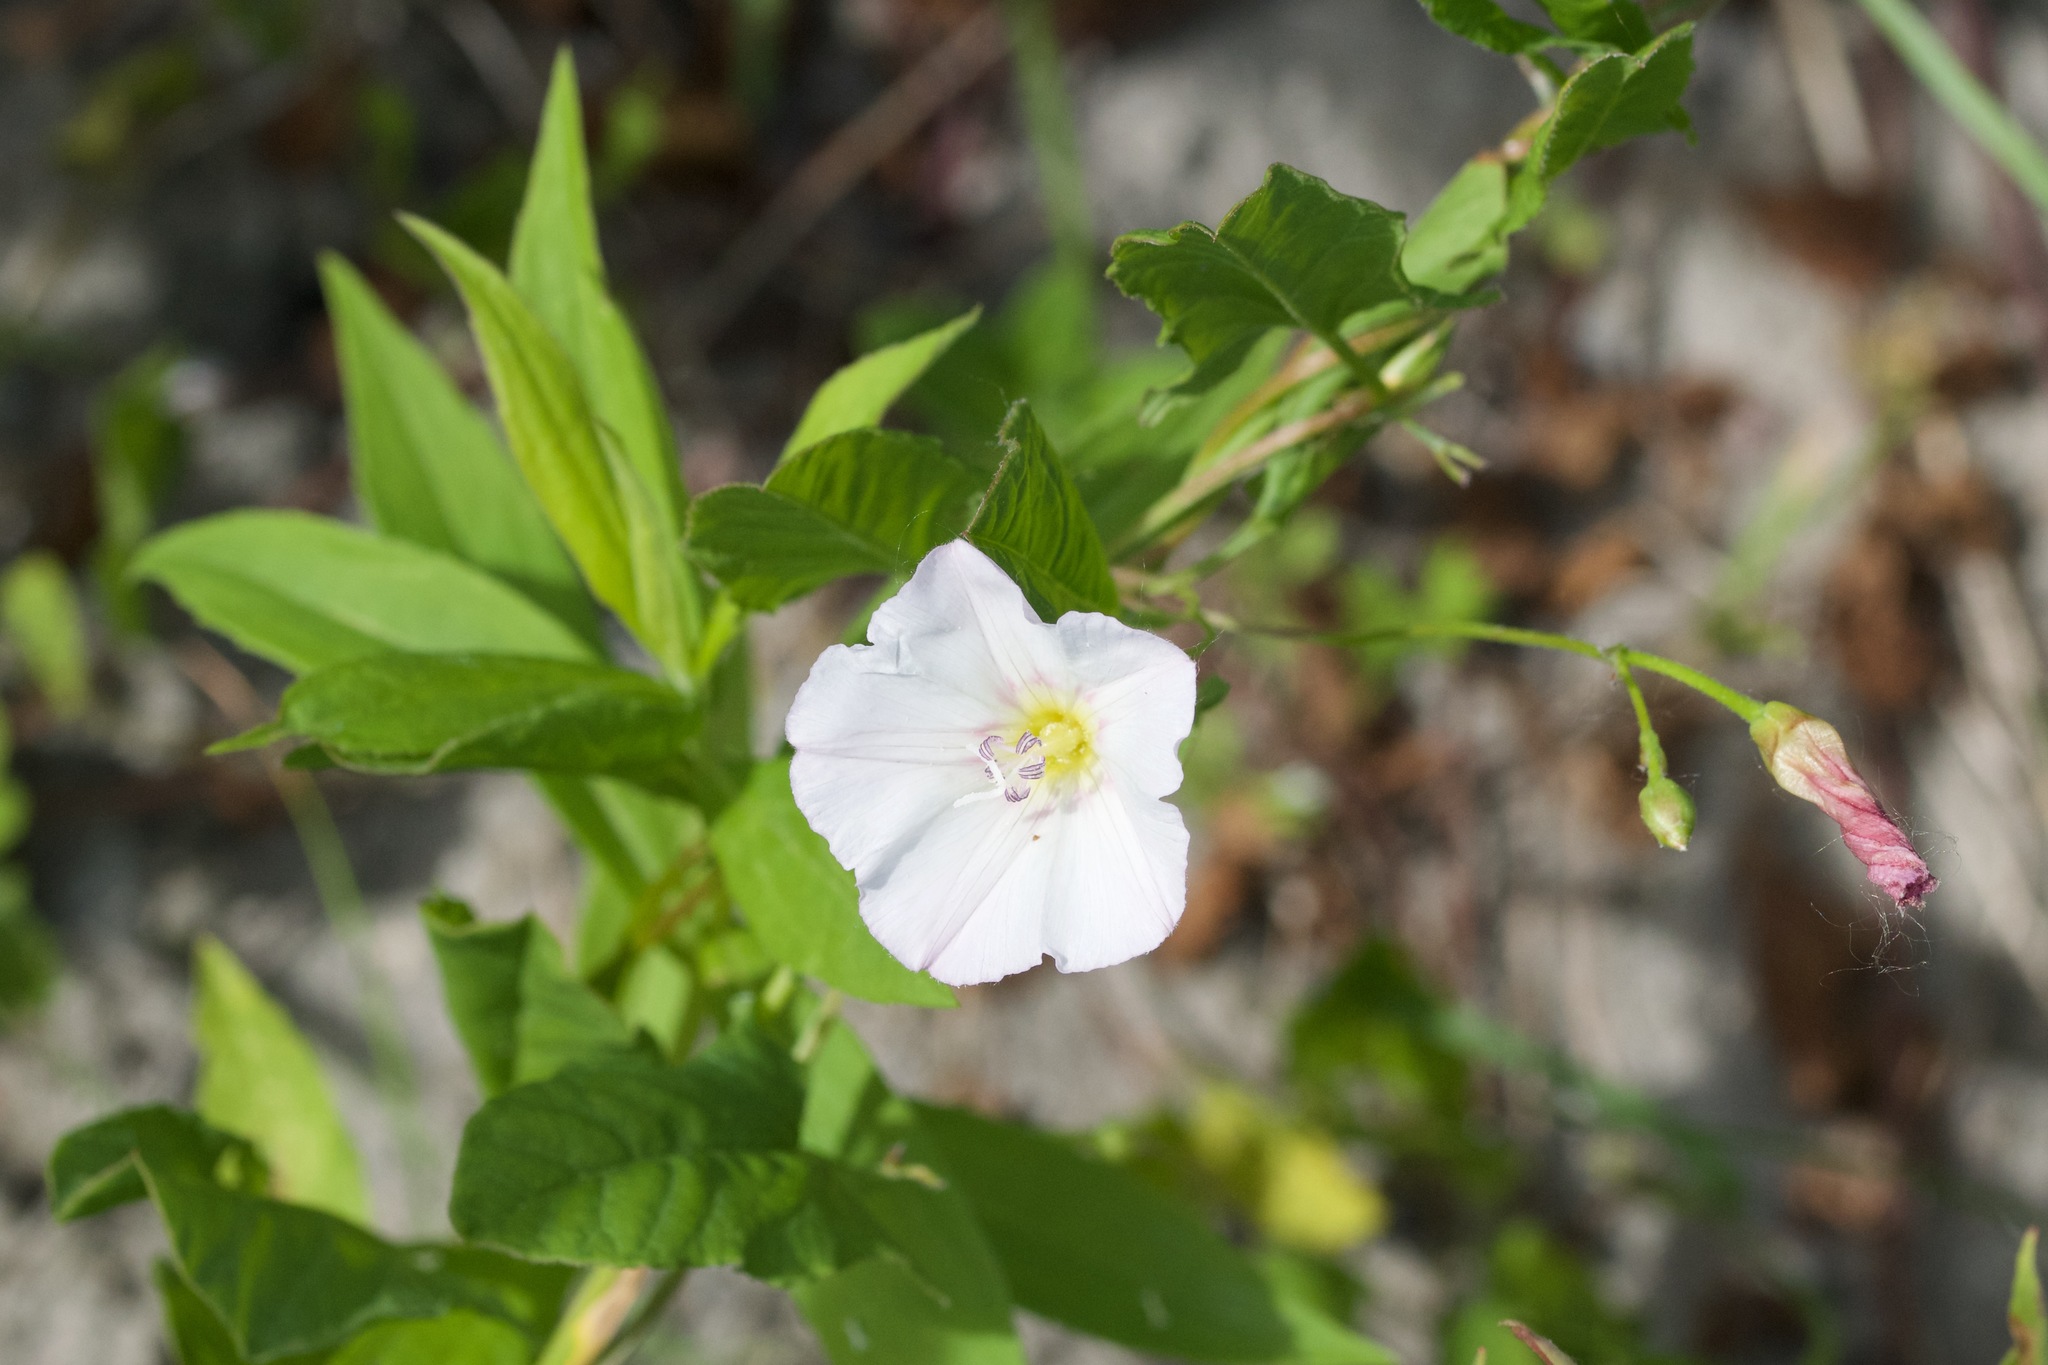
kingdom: Plantae
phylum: Tracheophyta
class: Magnoliopsida
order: Solanales
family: Convolvulaceae
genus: Convolvulus
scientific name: Convolvulus arvensis
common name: Field bindweed
